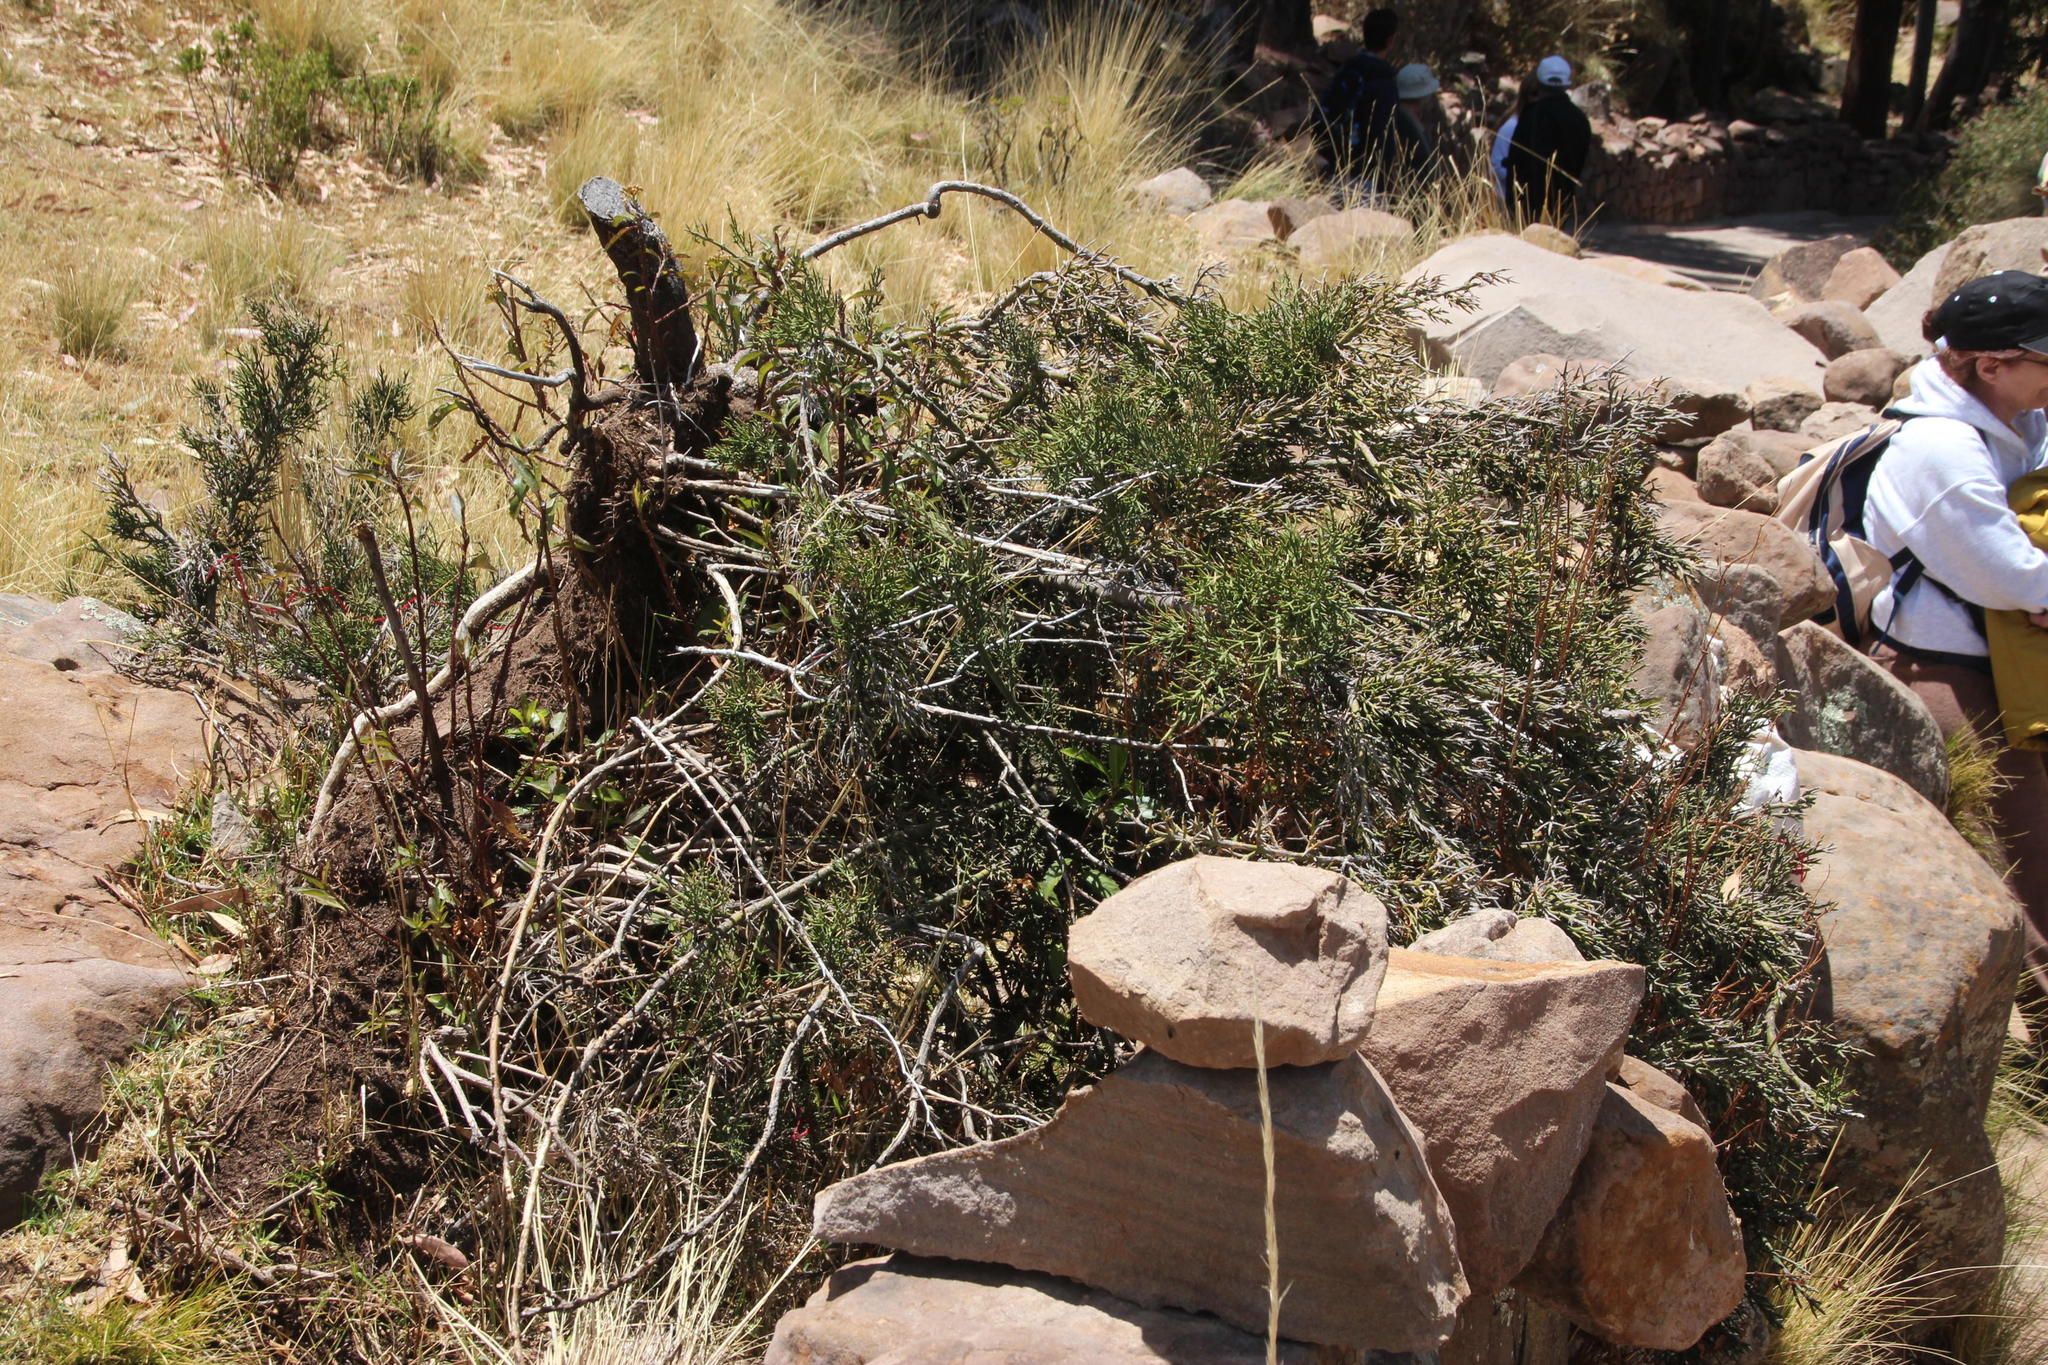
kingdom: Plantae
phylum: Tracheophyta
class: Magnoliopsida
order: Rosales
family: Rhamnaceae
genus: Colletia
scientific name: Colletia spinosissima
